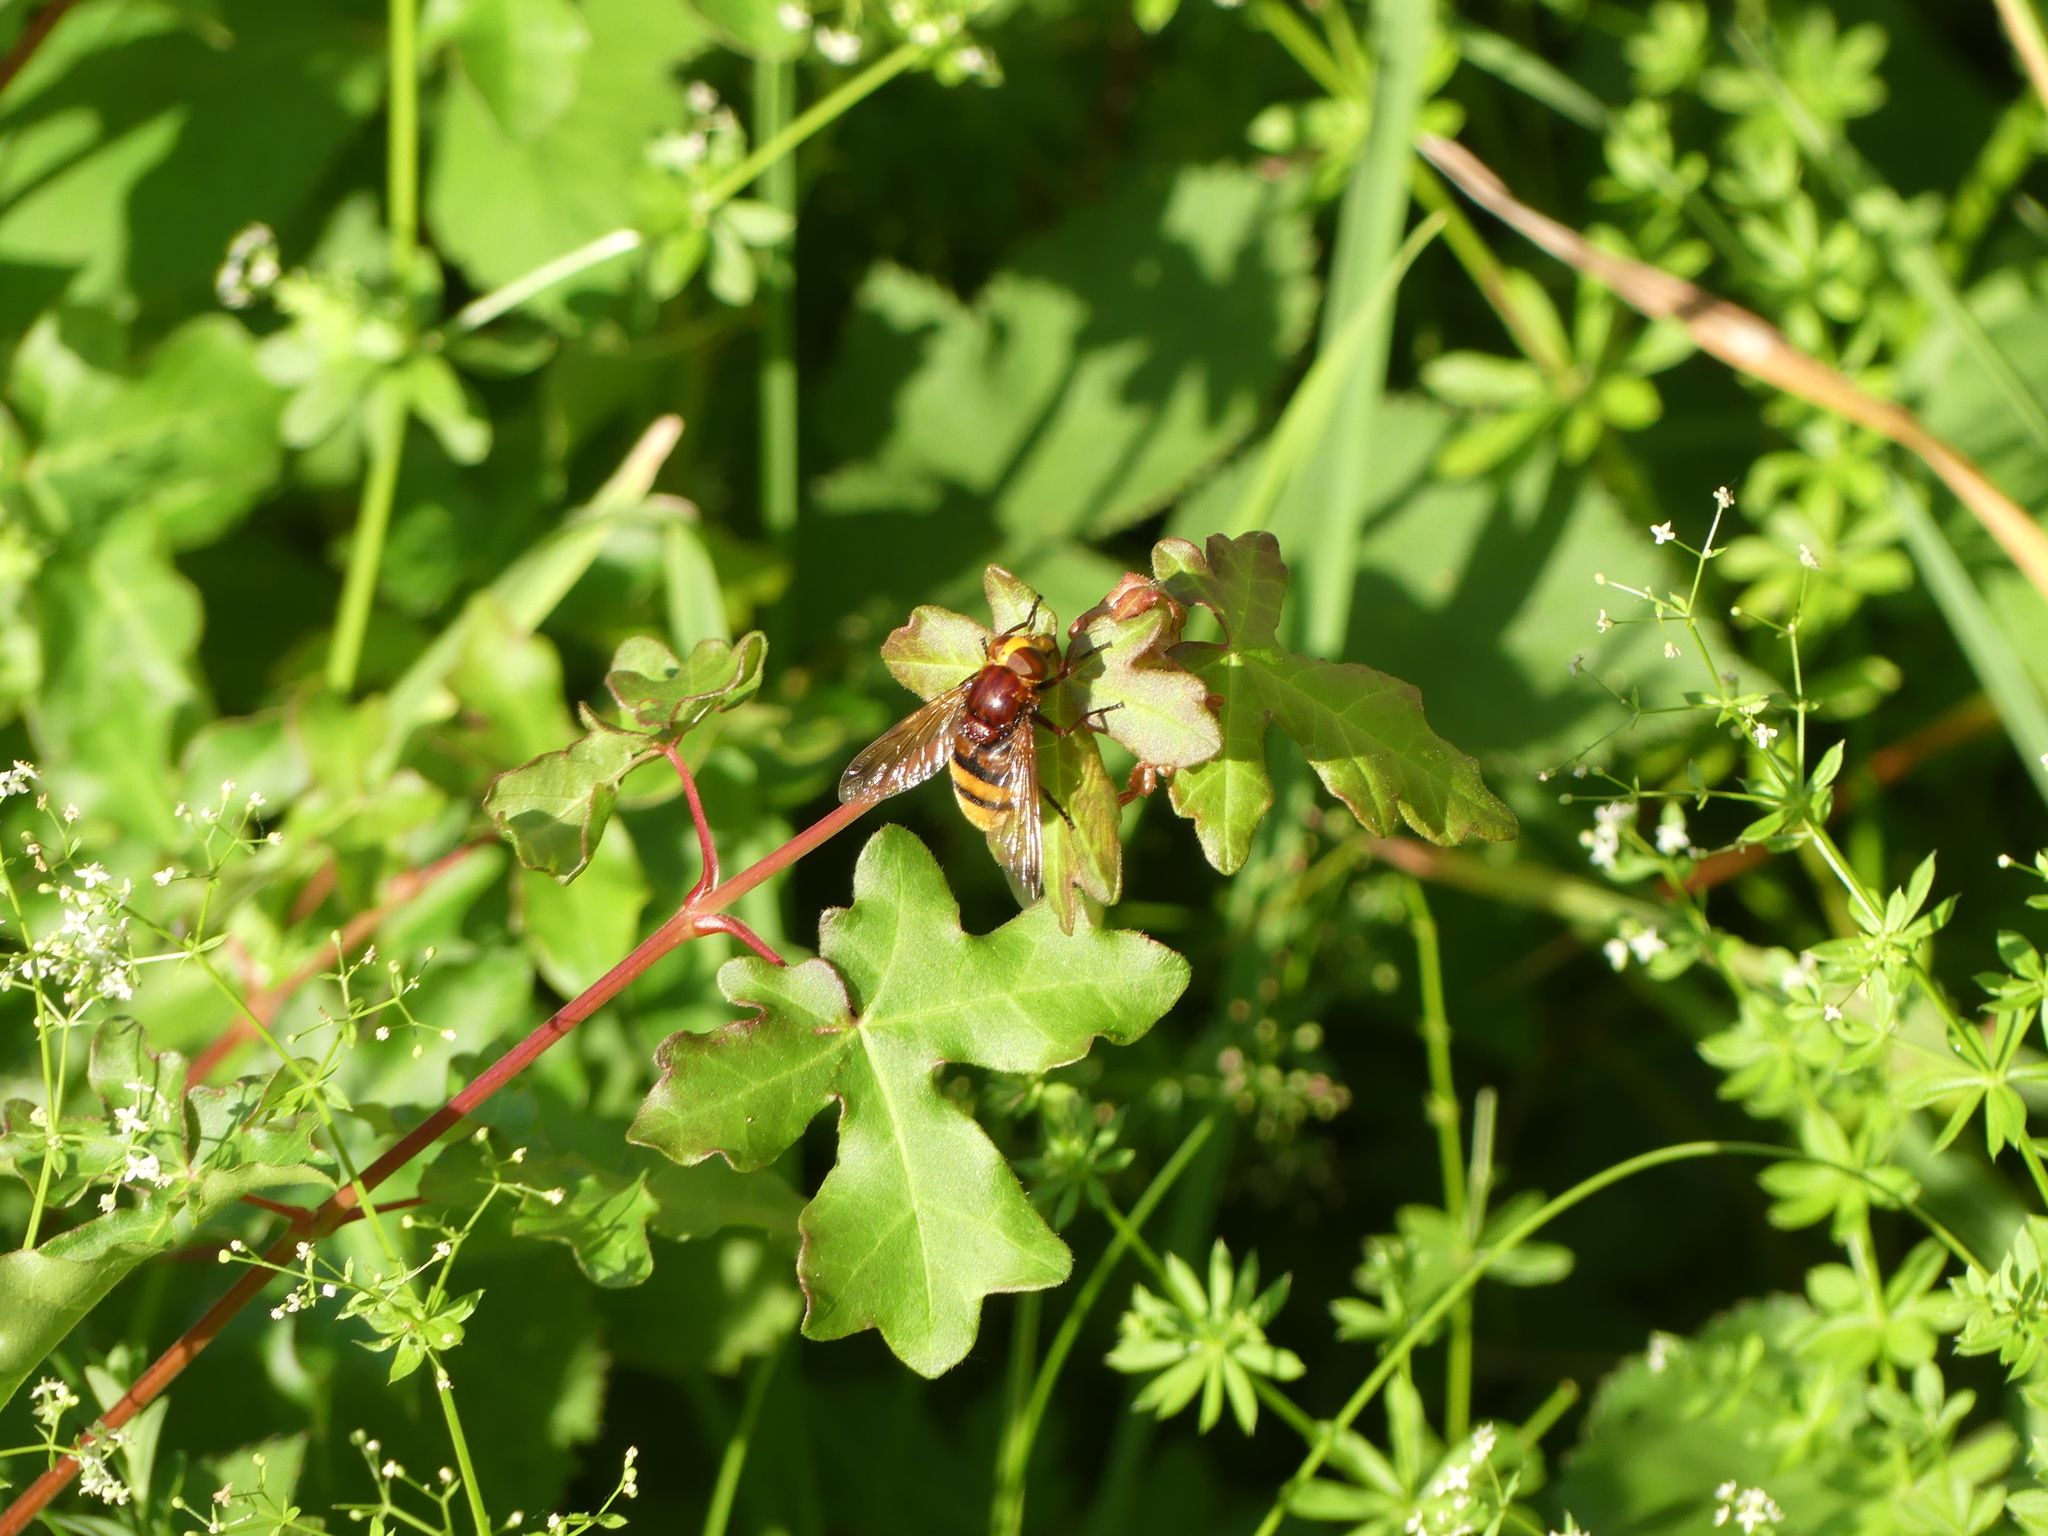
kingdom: Animalia
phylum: Arthropoda
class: Insecta
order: Diptera
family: Syrphidae
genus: Volucella
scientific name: Volucella zonaria
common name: Hornet hoverfly
